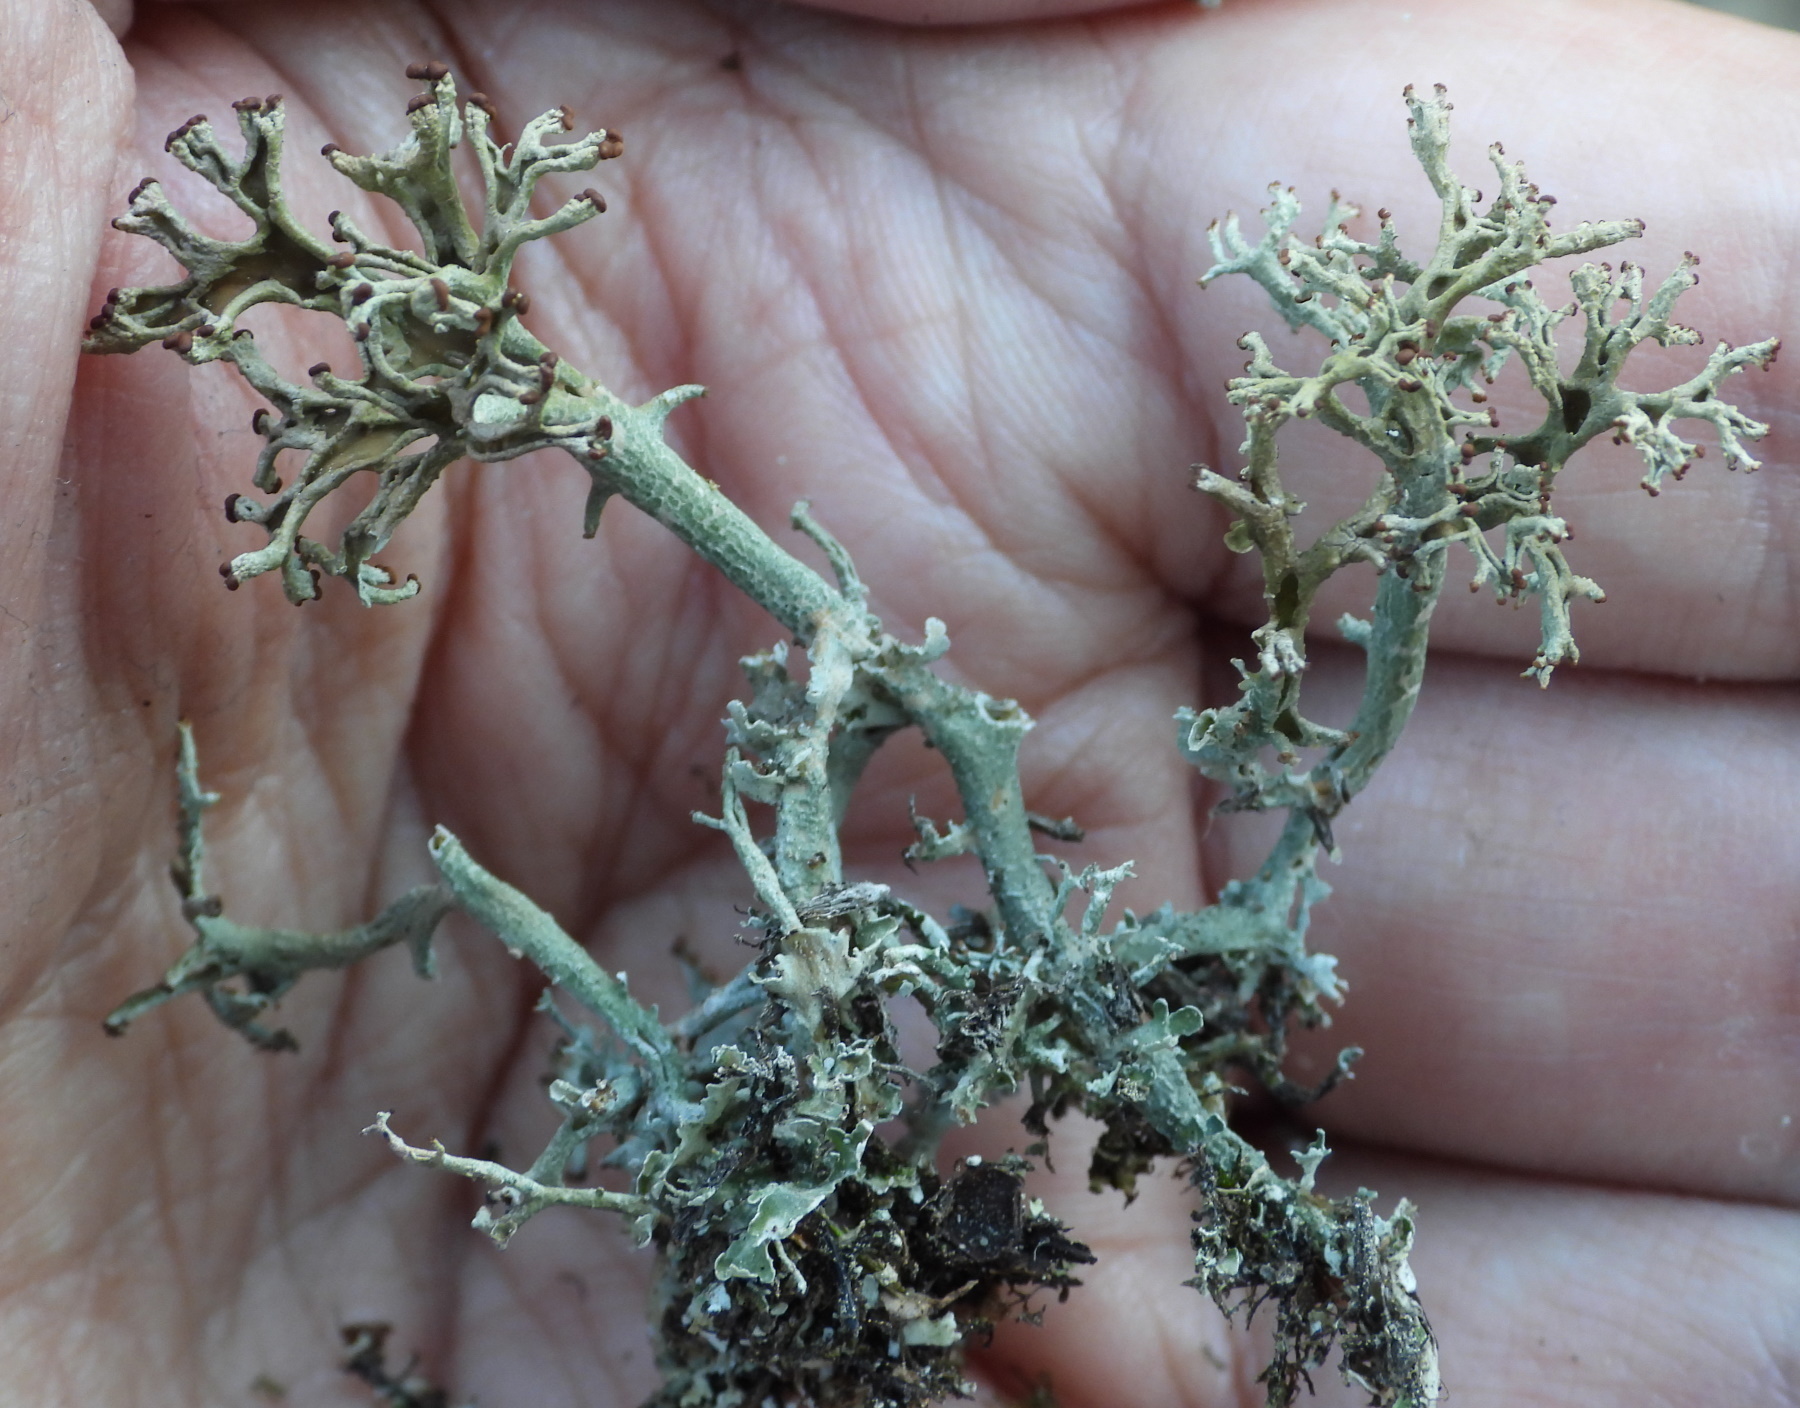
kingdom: Fungi
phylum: Ascomycota
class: Lecanoromycetes
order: Lecanorales
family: Cladoniaceae
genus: Cladonia
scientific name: Cladonia furcata
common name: Many-forked cladonia
